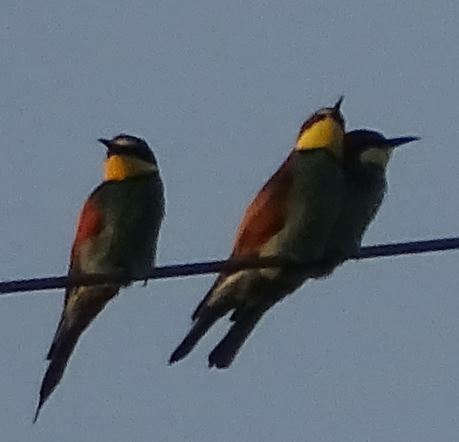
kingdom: Animalia
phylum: Chordata
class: Aves
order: Coraciiformes
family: Meropidae
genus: Merops
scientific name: Merops apiaster
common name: European bee-eater
